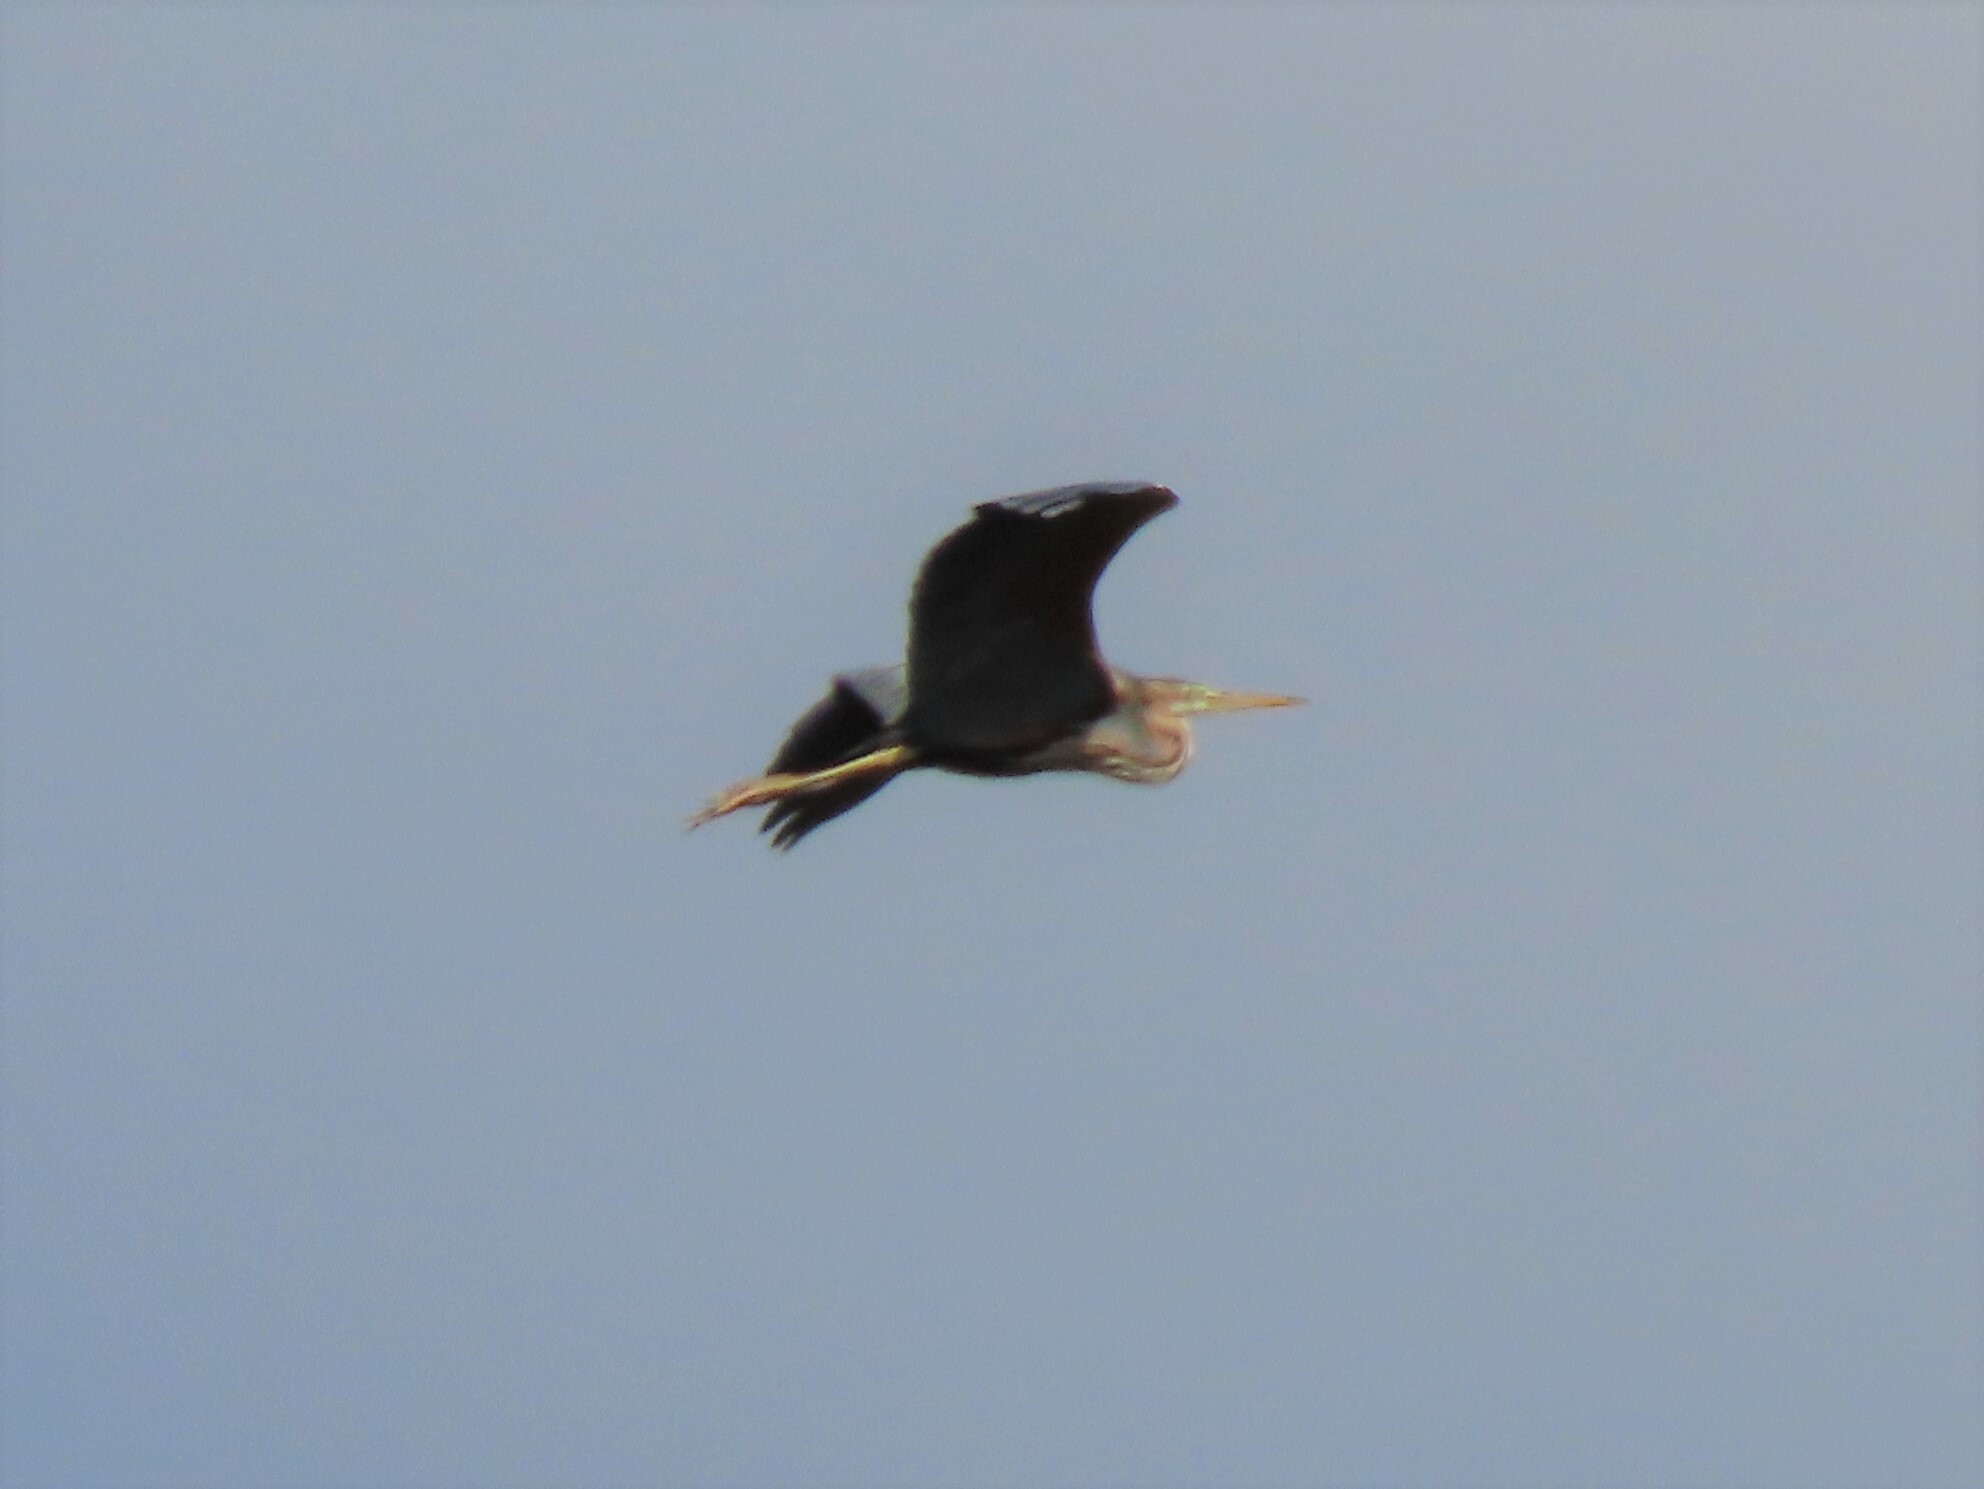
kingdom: Animalia
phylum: Chordata
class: Aves
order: Pelecaniformes
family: Ardeidae
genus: Ardea
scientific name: Ardea purpurea
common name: Purple heron
